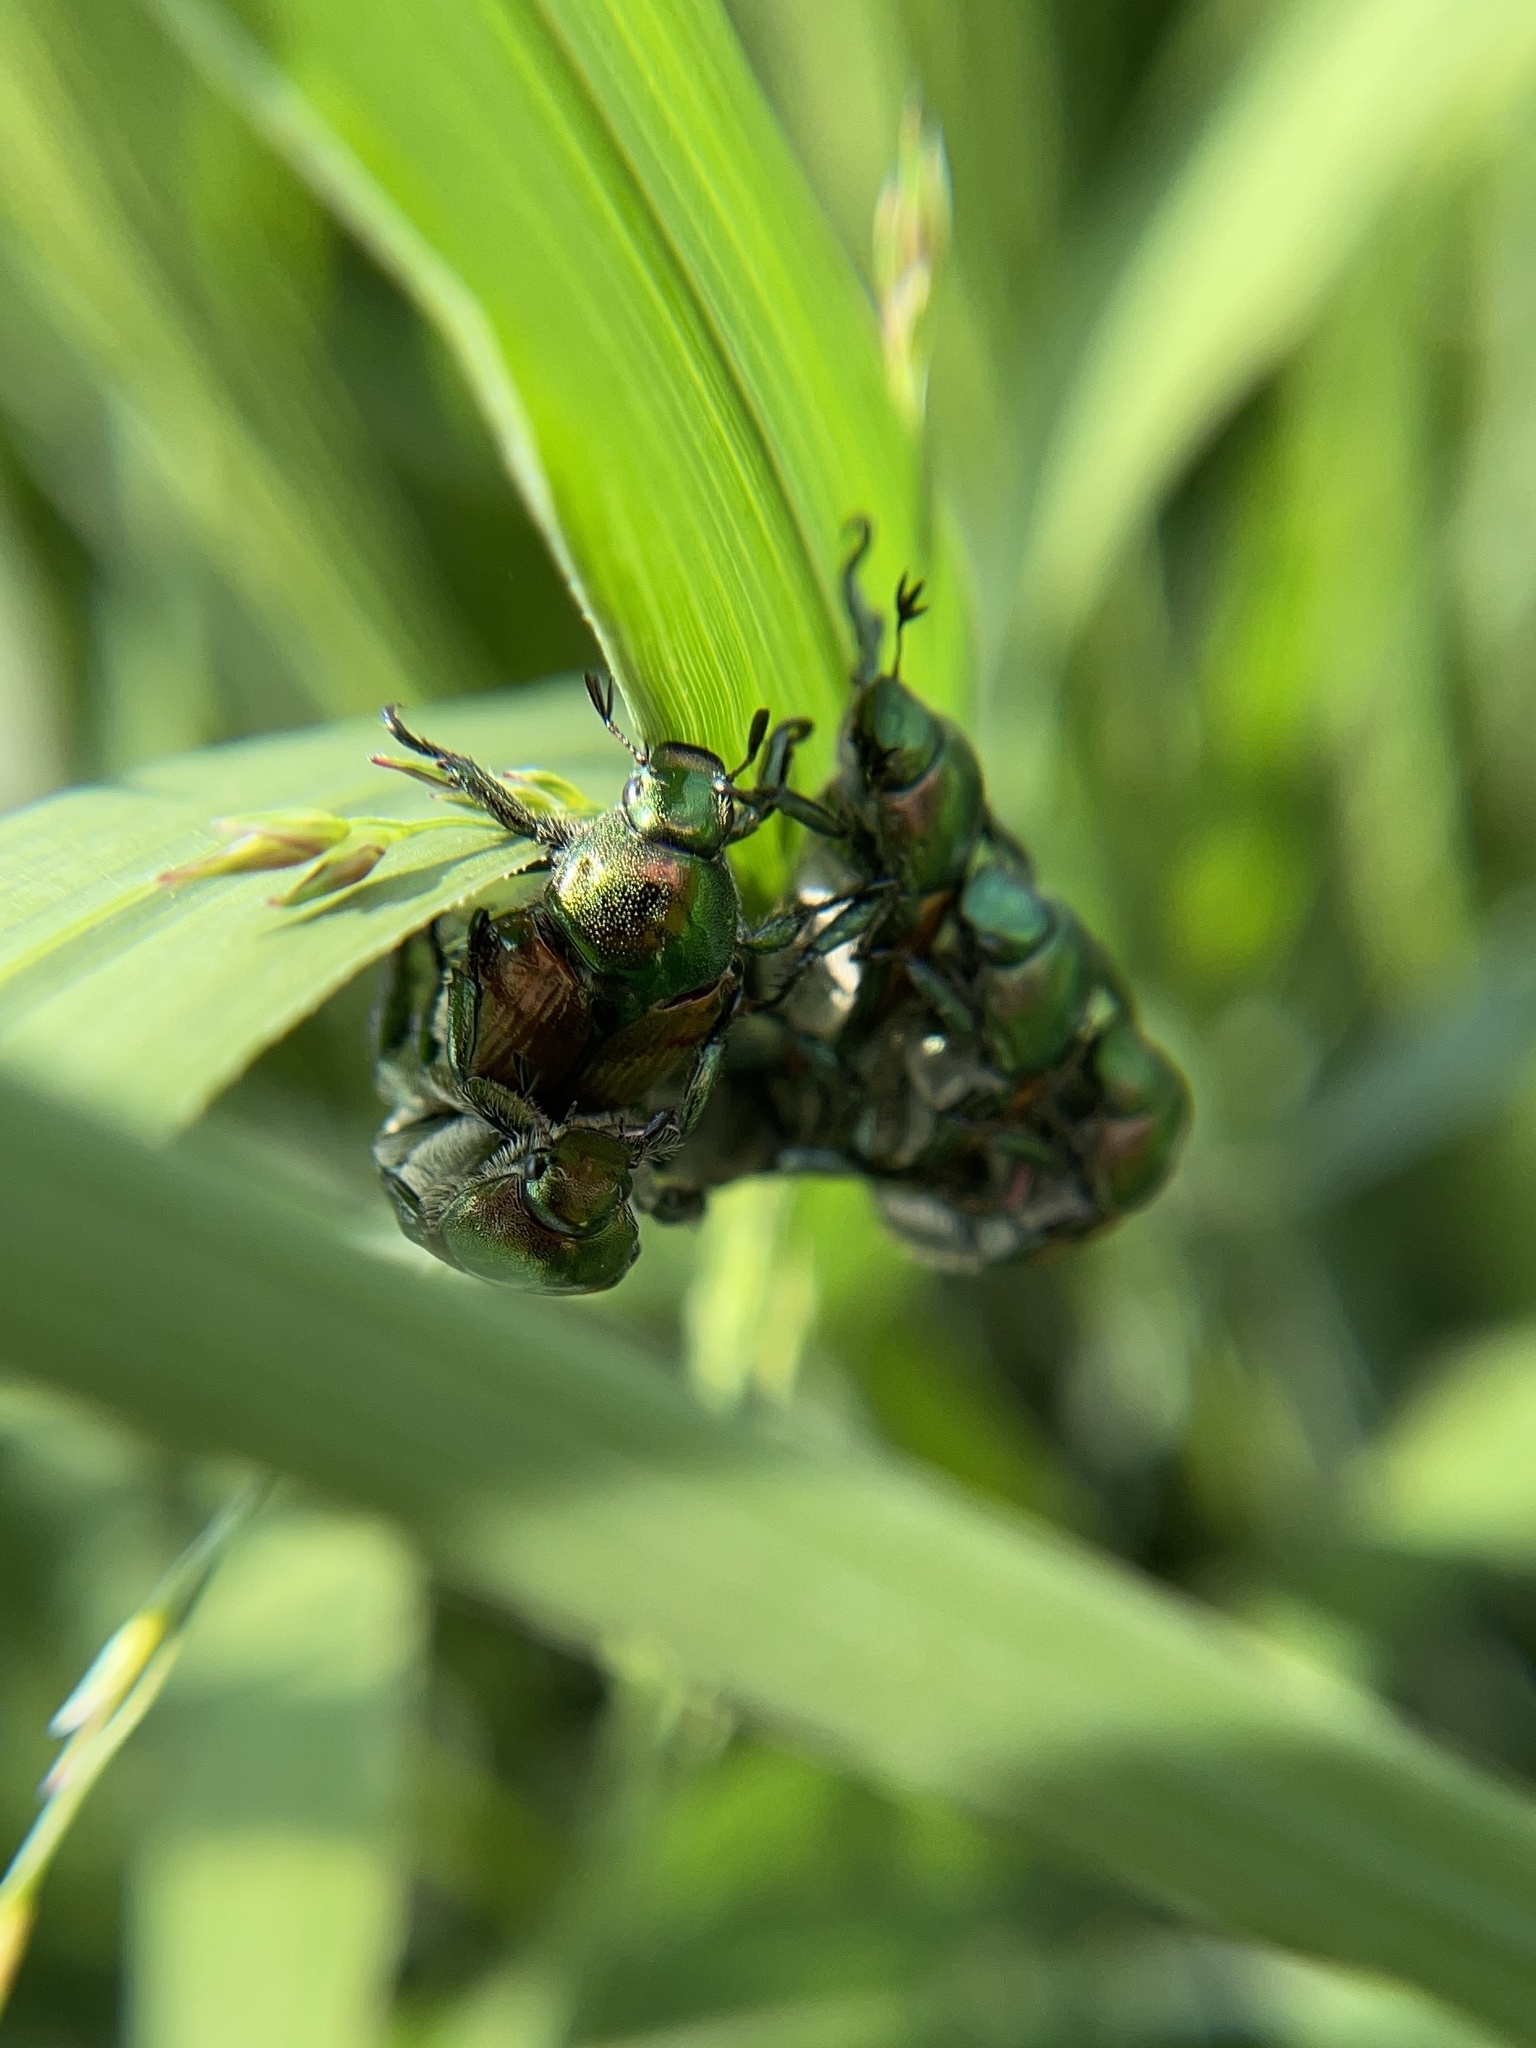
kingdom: Animalia
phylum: Arthropoda
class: Insecta
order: Coleoptera
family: Scarabaeidae
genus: Popillia
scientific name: Popillia japonica
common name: Japanese beetle
